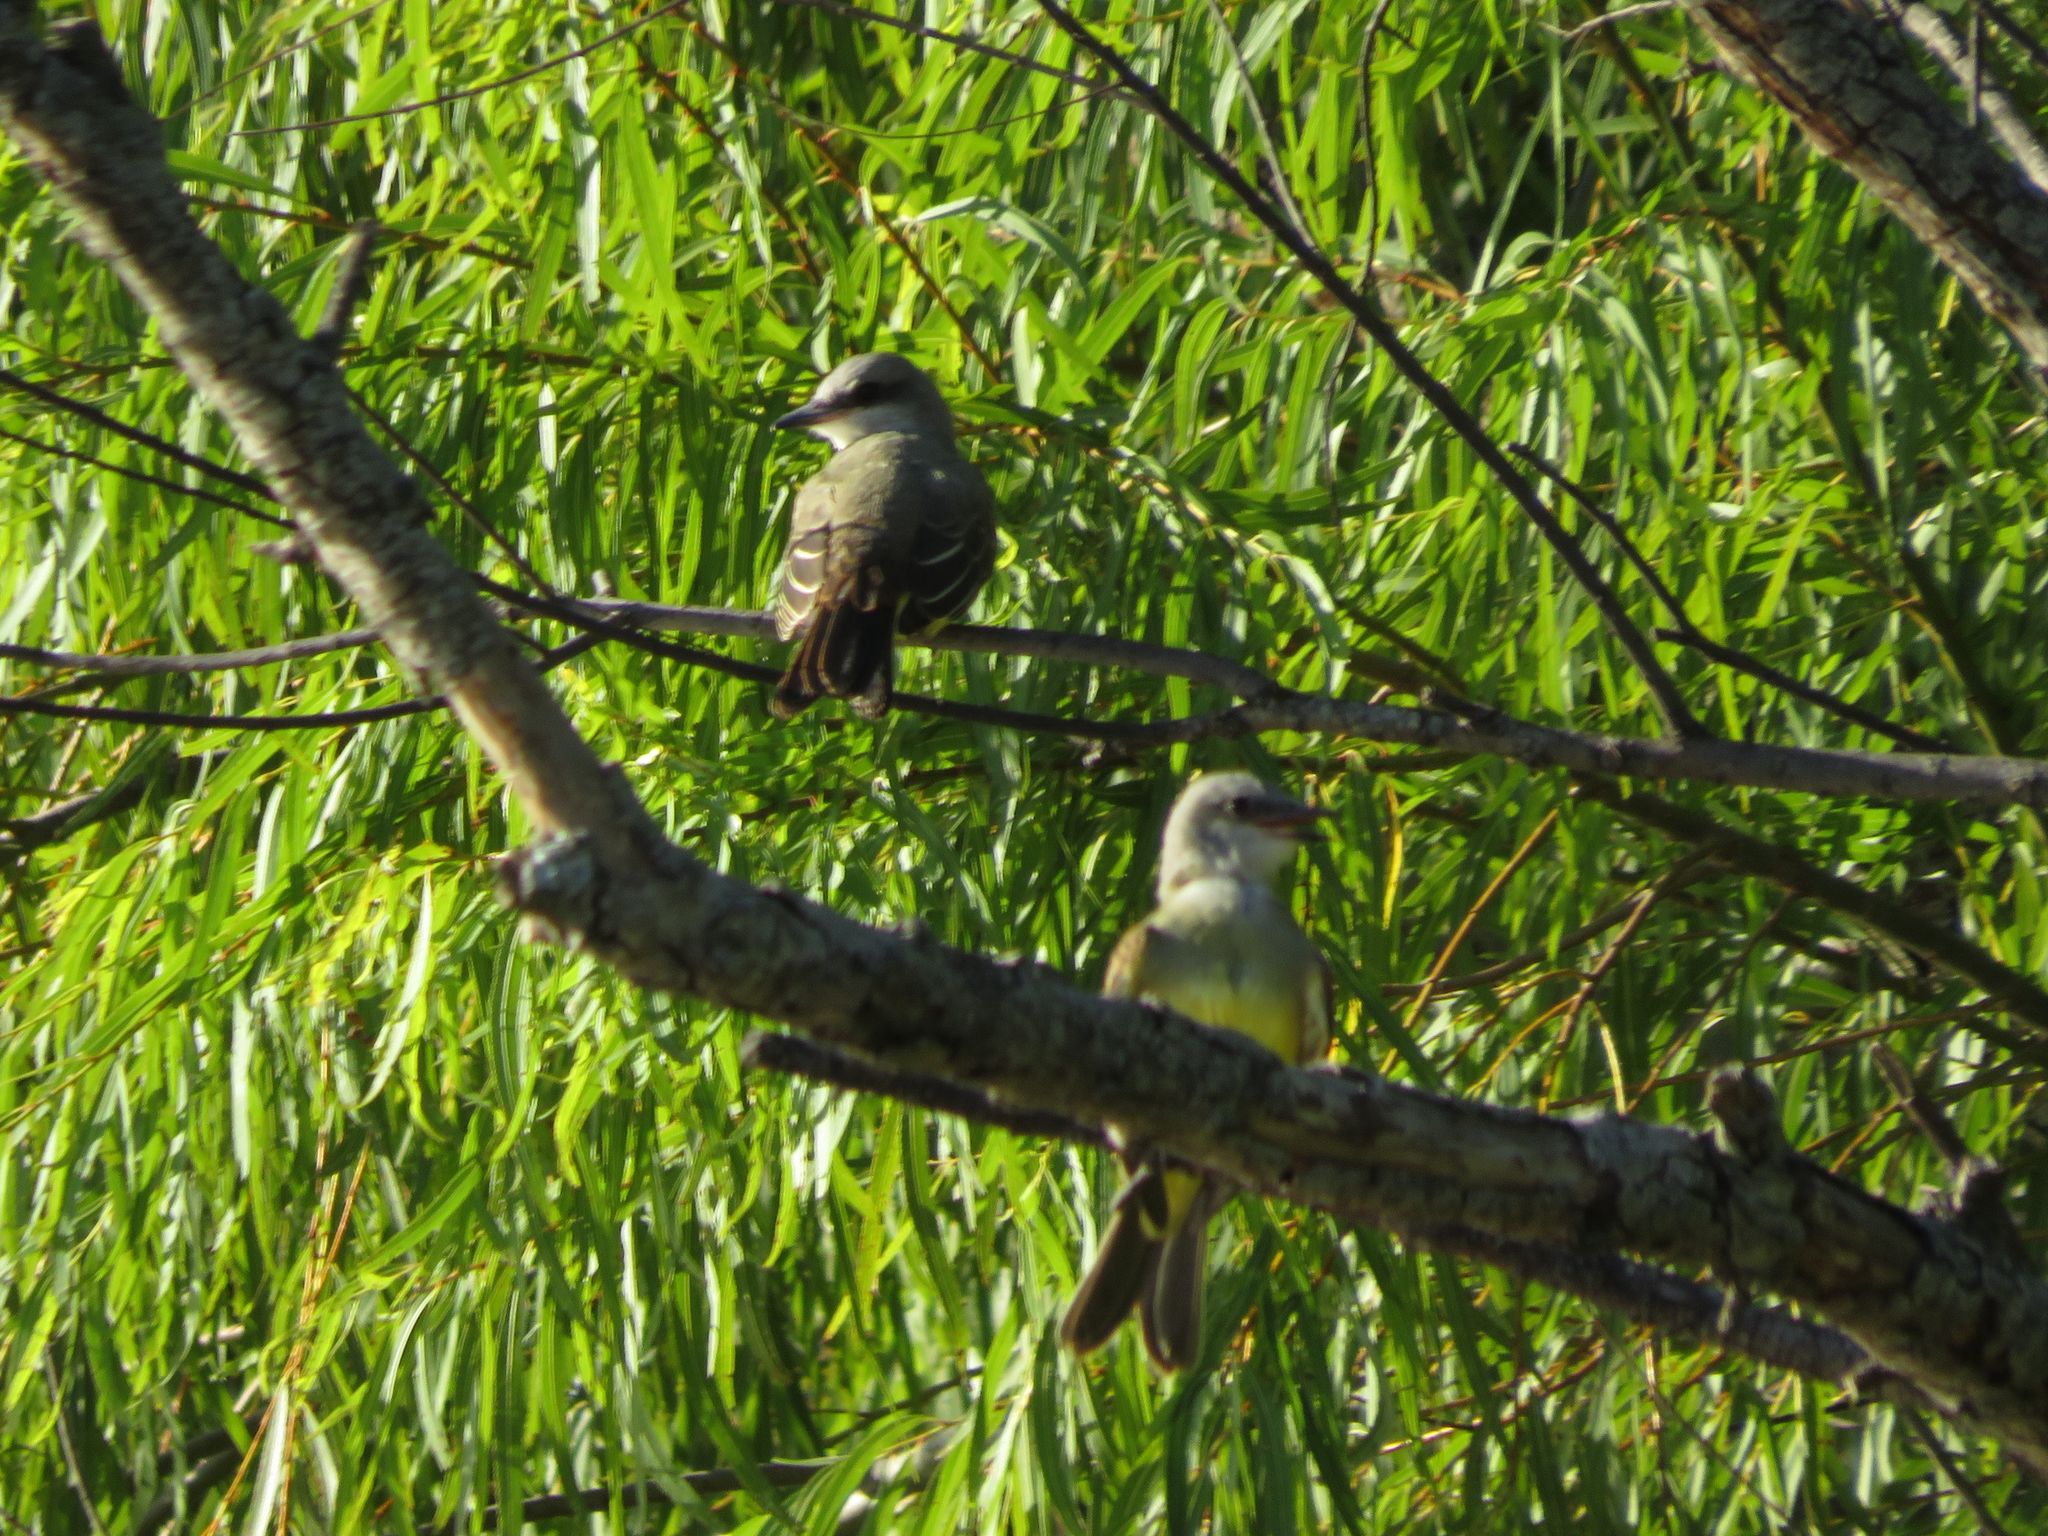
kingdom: Animalia
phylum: Chordata
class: Aves
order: Passeriformes
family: Tyrannidae
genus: Tyrannus
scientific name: Tyrannus melancholicus
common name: Tropical kingbird
